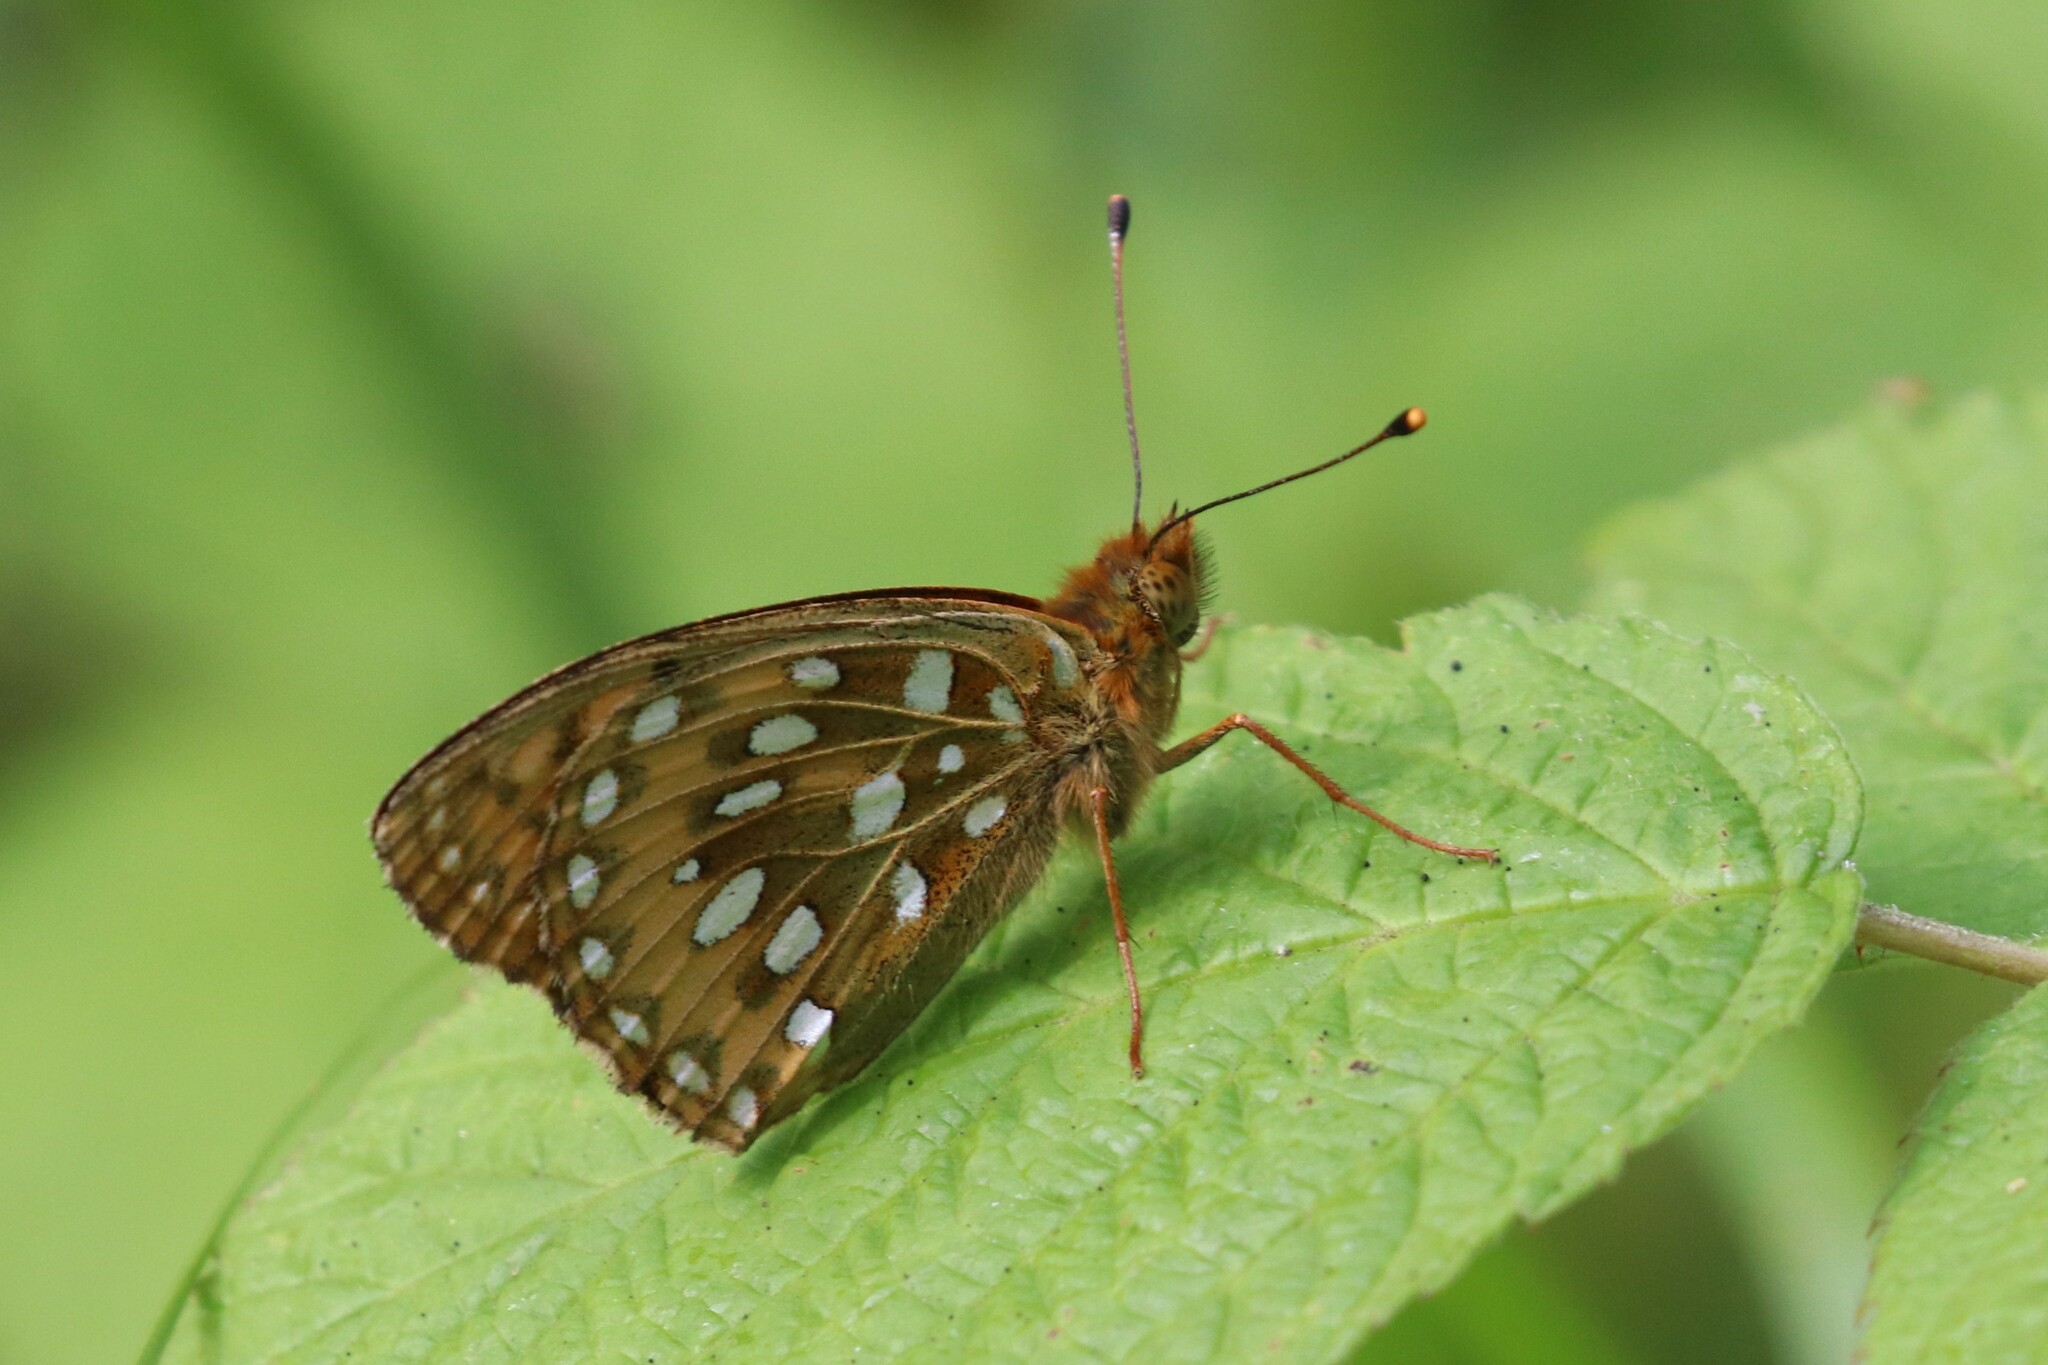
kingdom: Animalia
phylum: Arthropoda
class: Insecta
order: Lepidoptera
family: Nymphalidae
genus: Speyeria
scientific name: Speyeria aglaja
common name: Dark green fritillary
